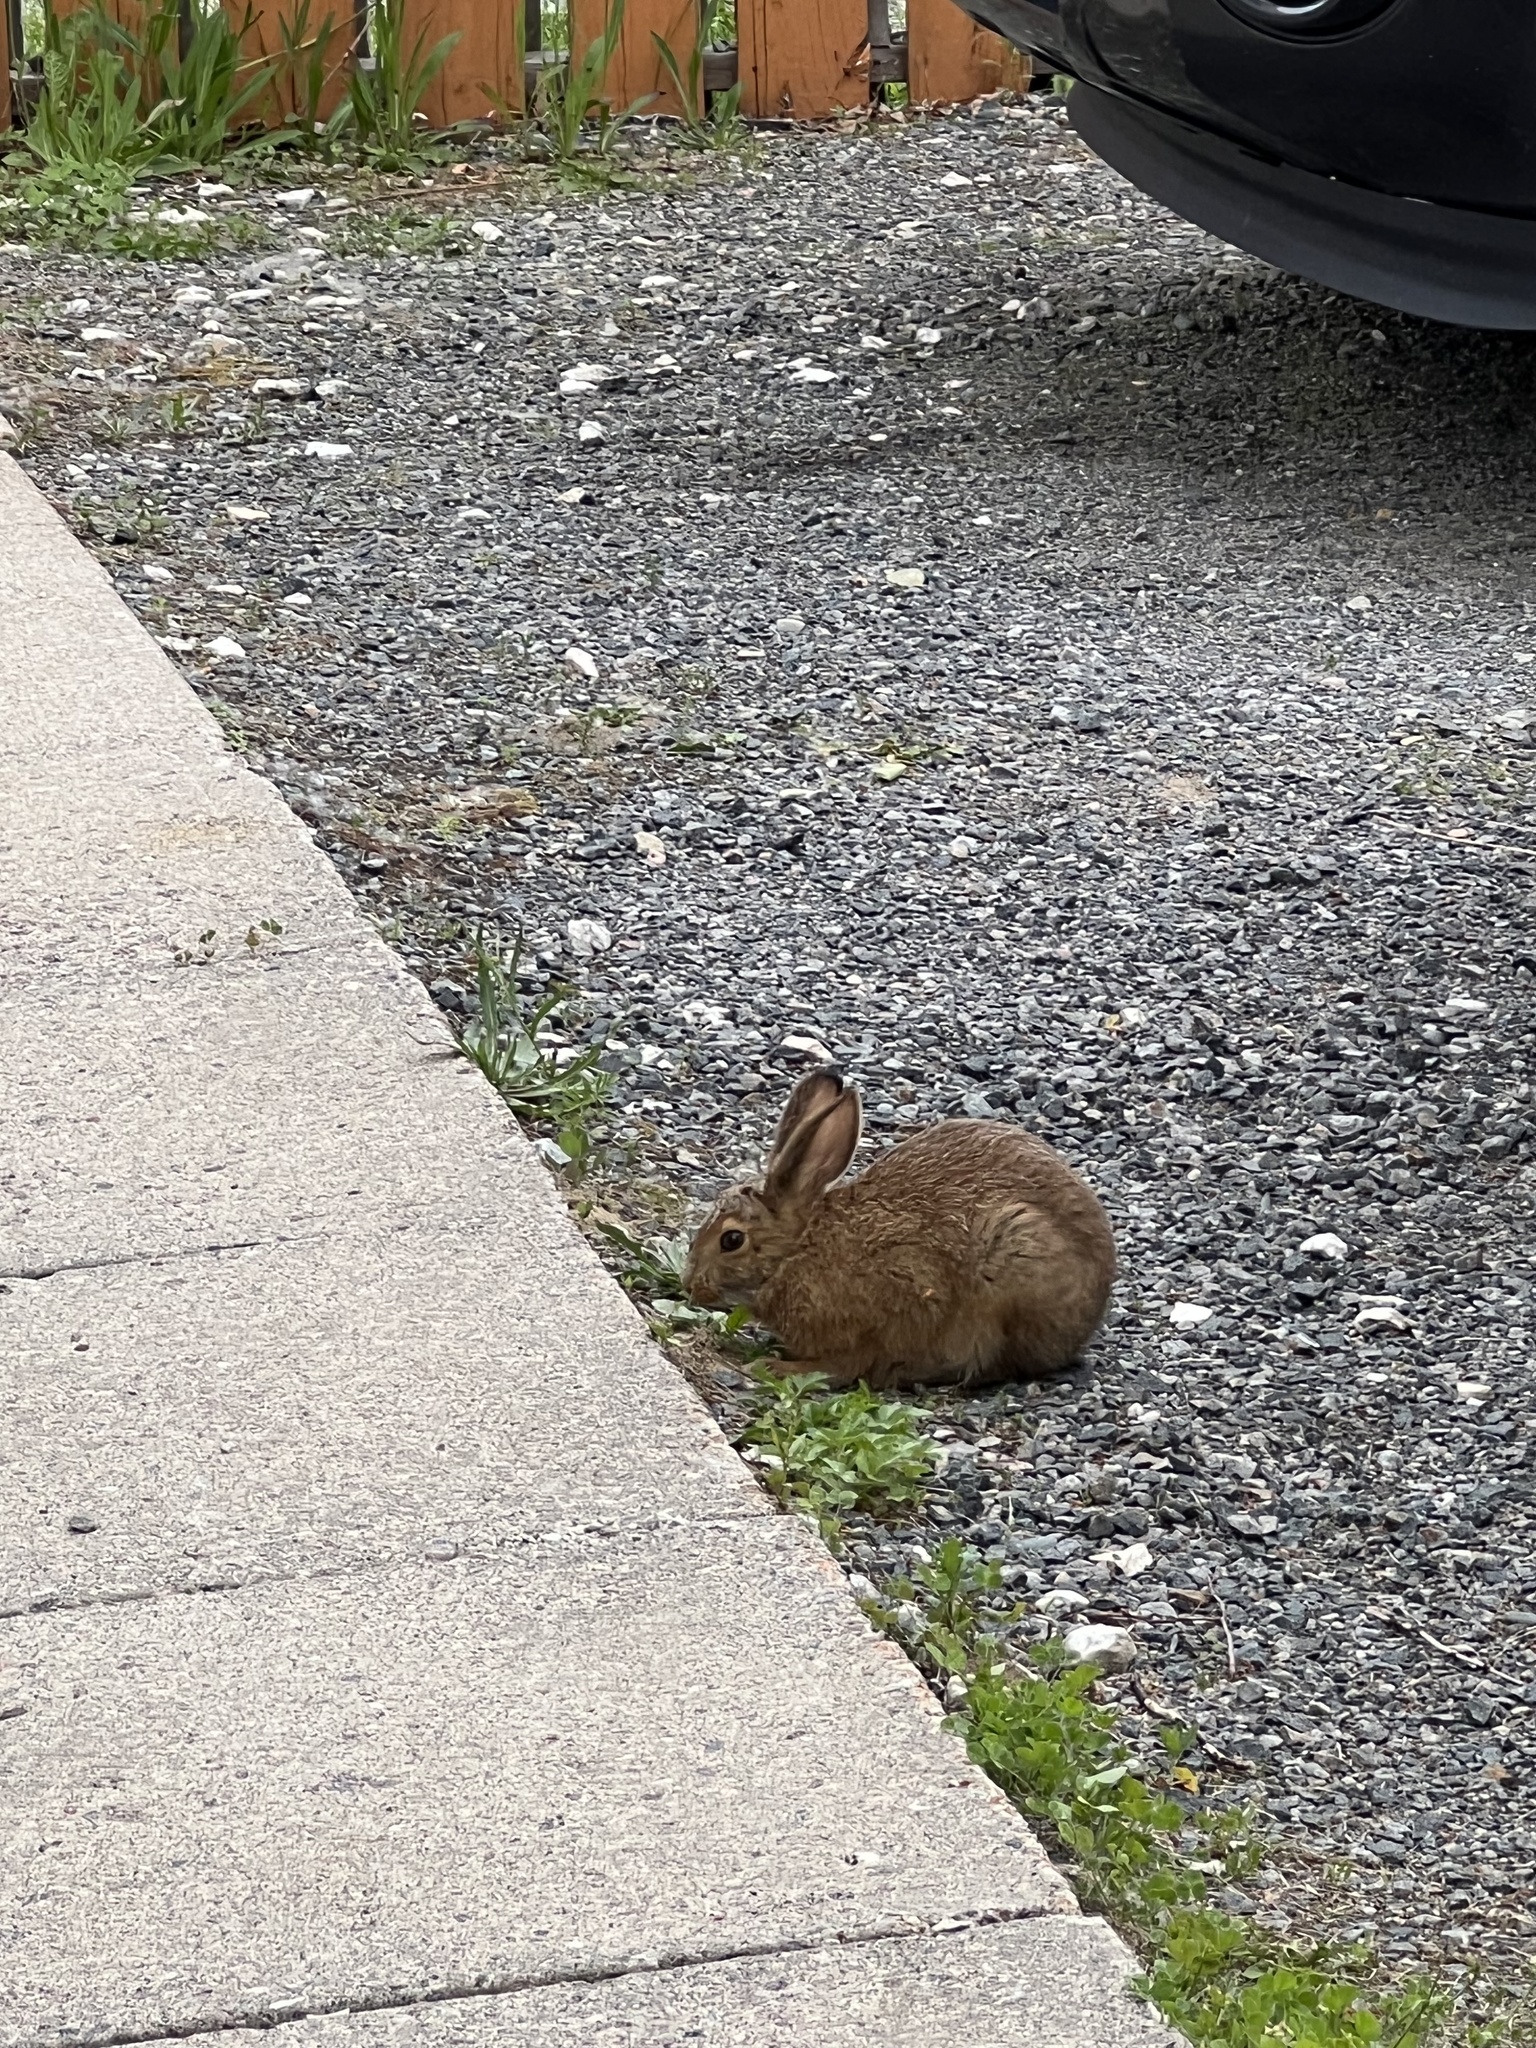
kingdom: Animalia
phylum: Chordata
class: Mammalia
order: Lagomorpha
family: Leporidae
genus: Lepus
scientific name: Lepus americanus
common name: Snowshoe hare
